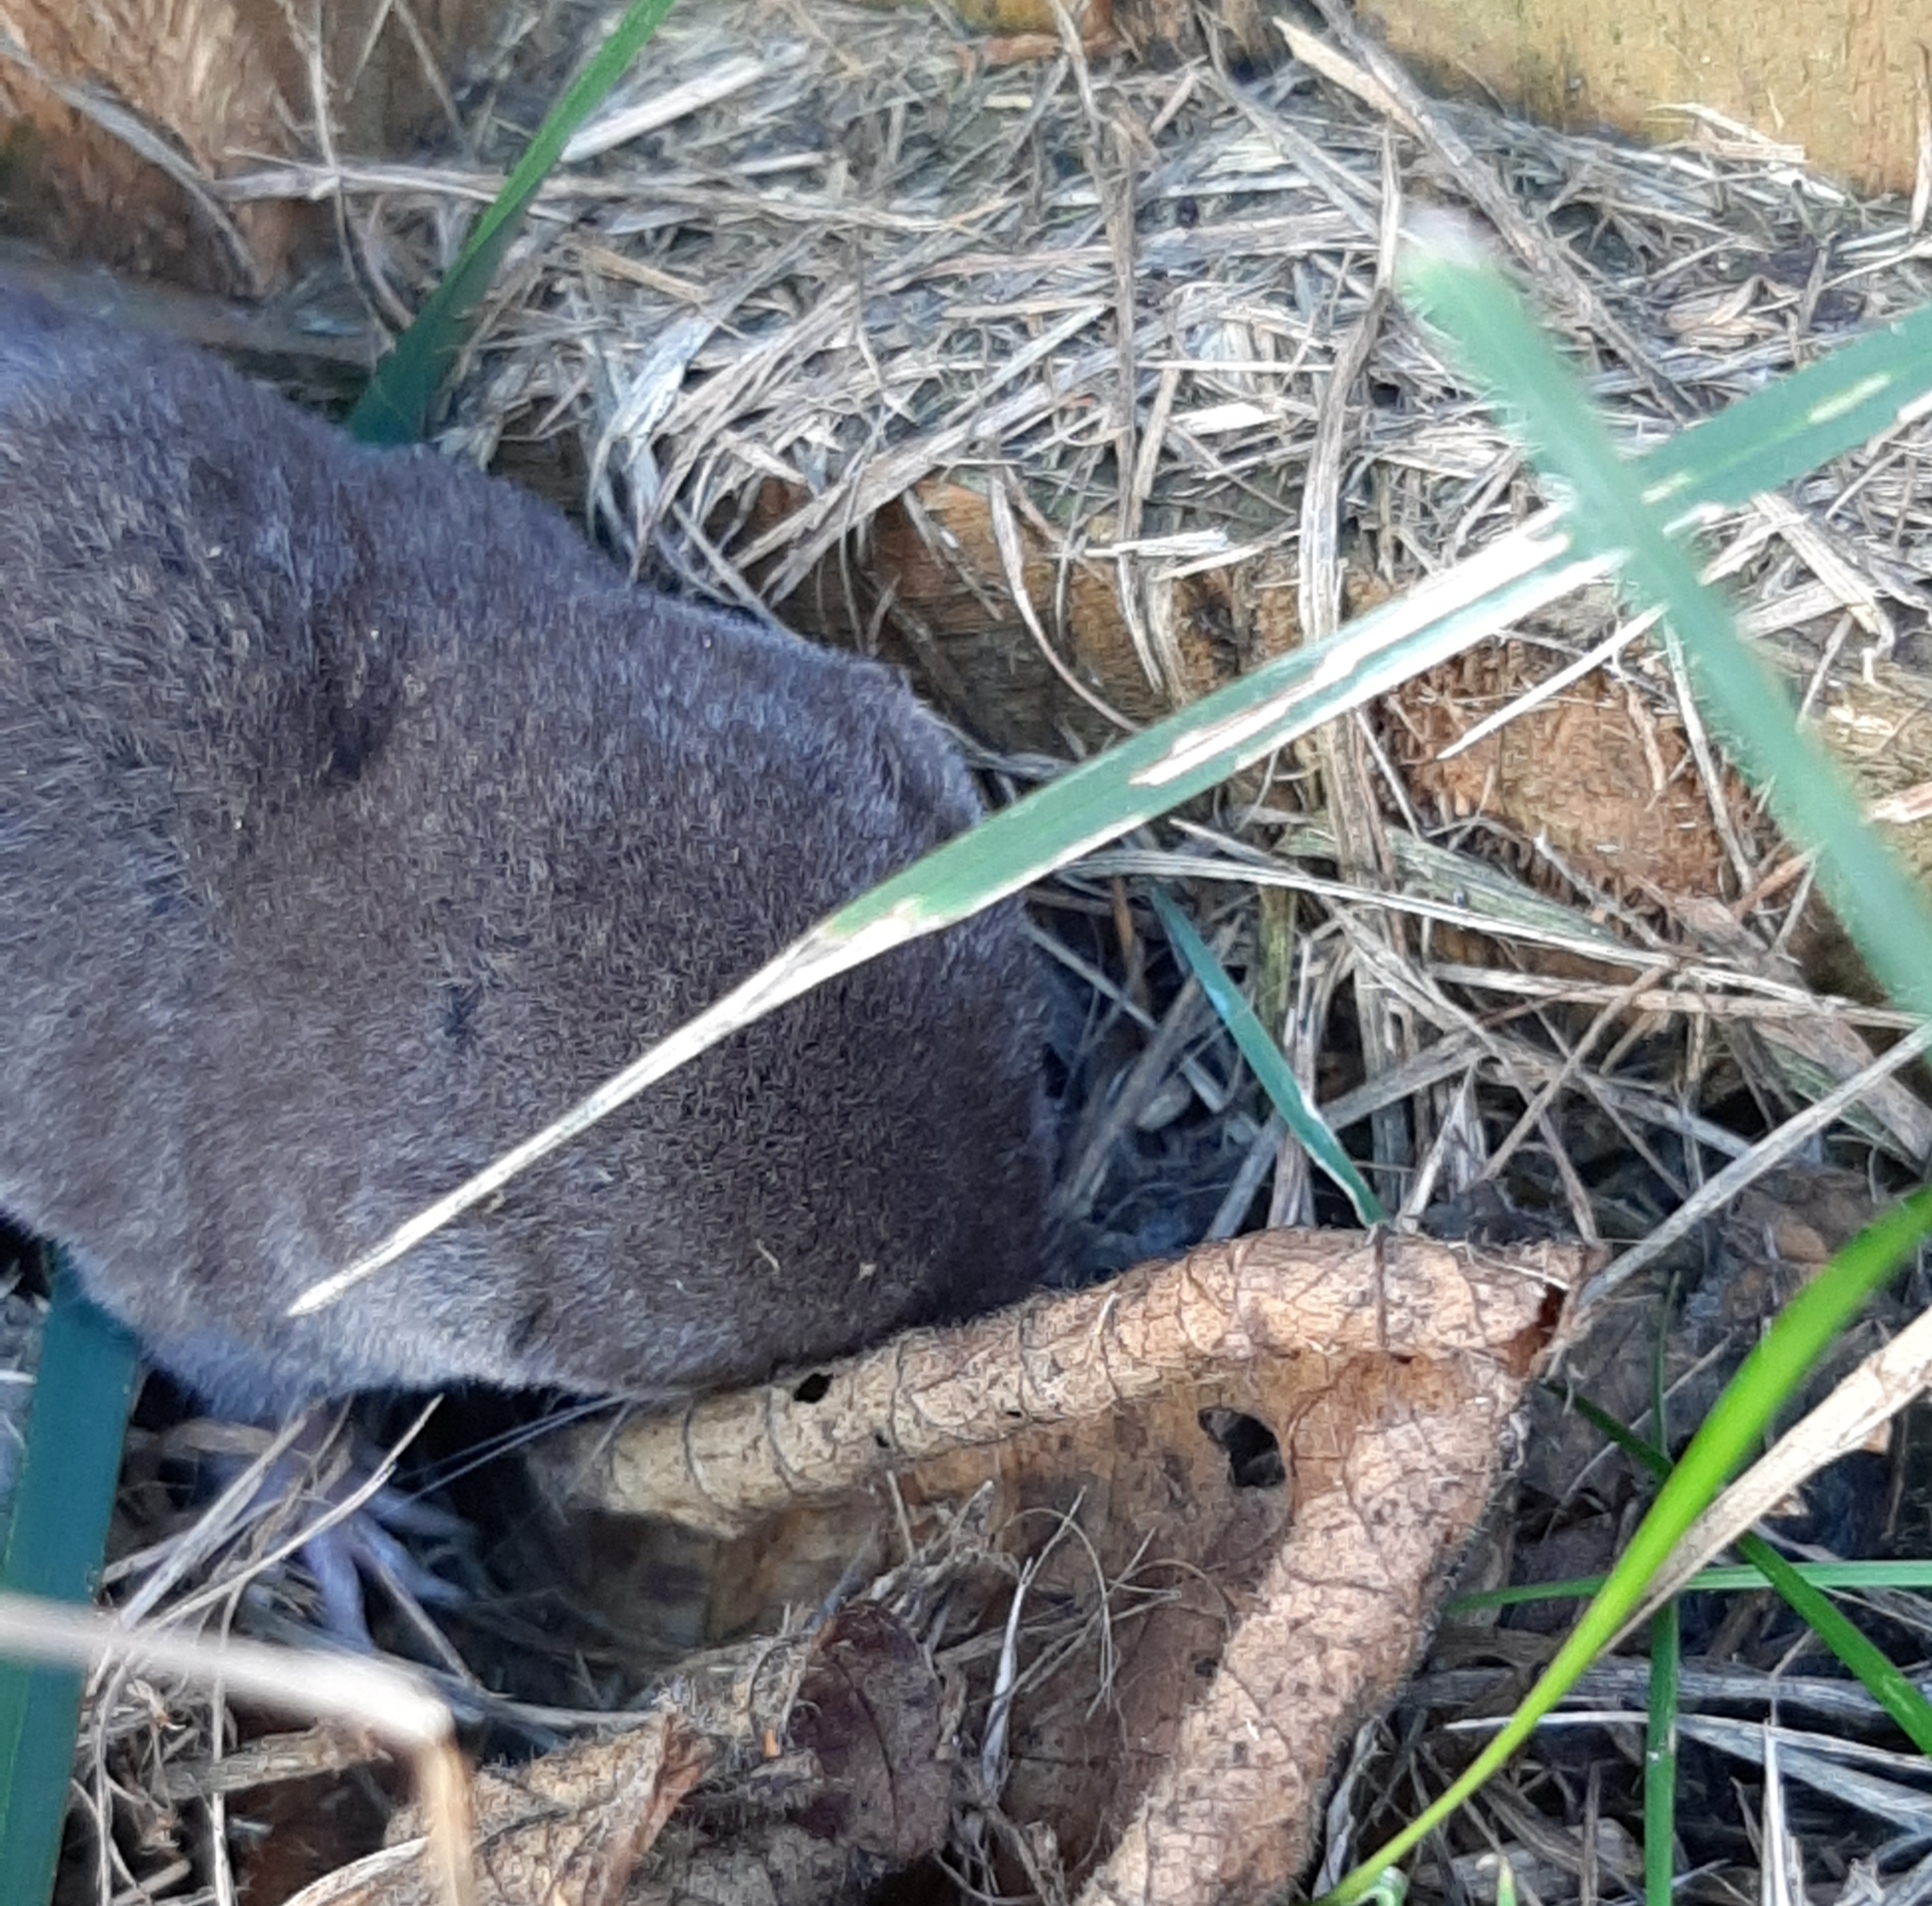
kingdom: Animalia
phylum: Chordata
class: Mammalia
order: Soricomorpha
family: Soricidae
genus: Blarina
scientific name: Blarina brevicauda
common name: Northern short-tailed shrew
